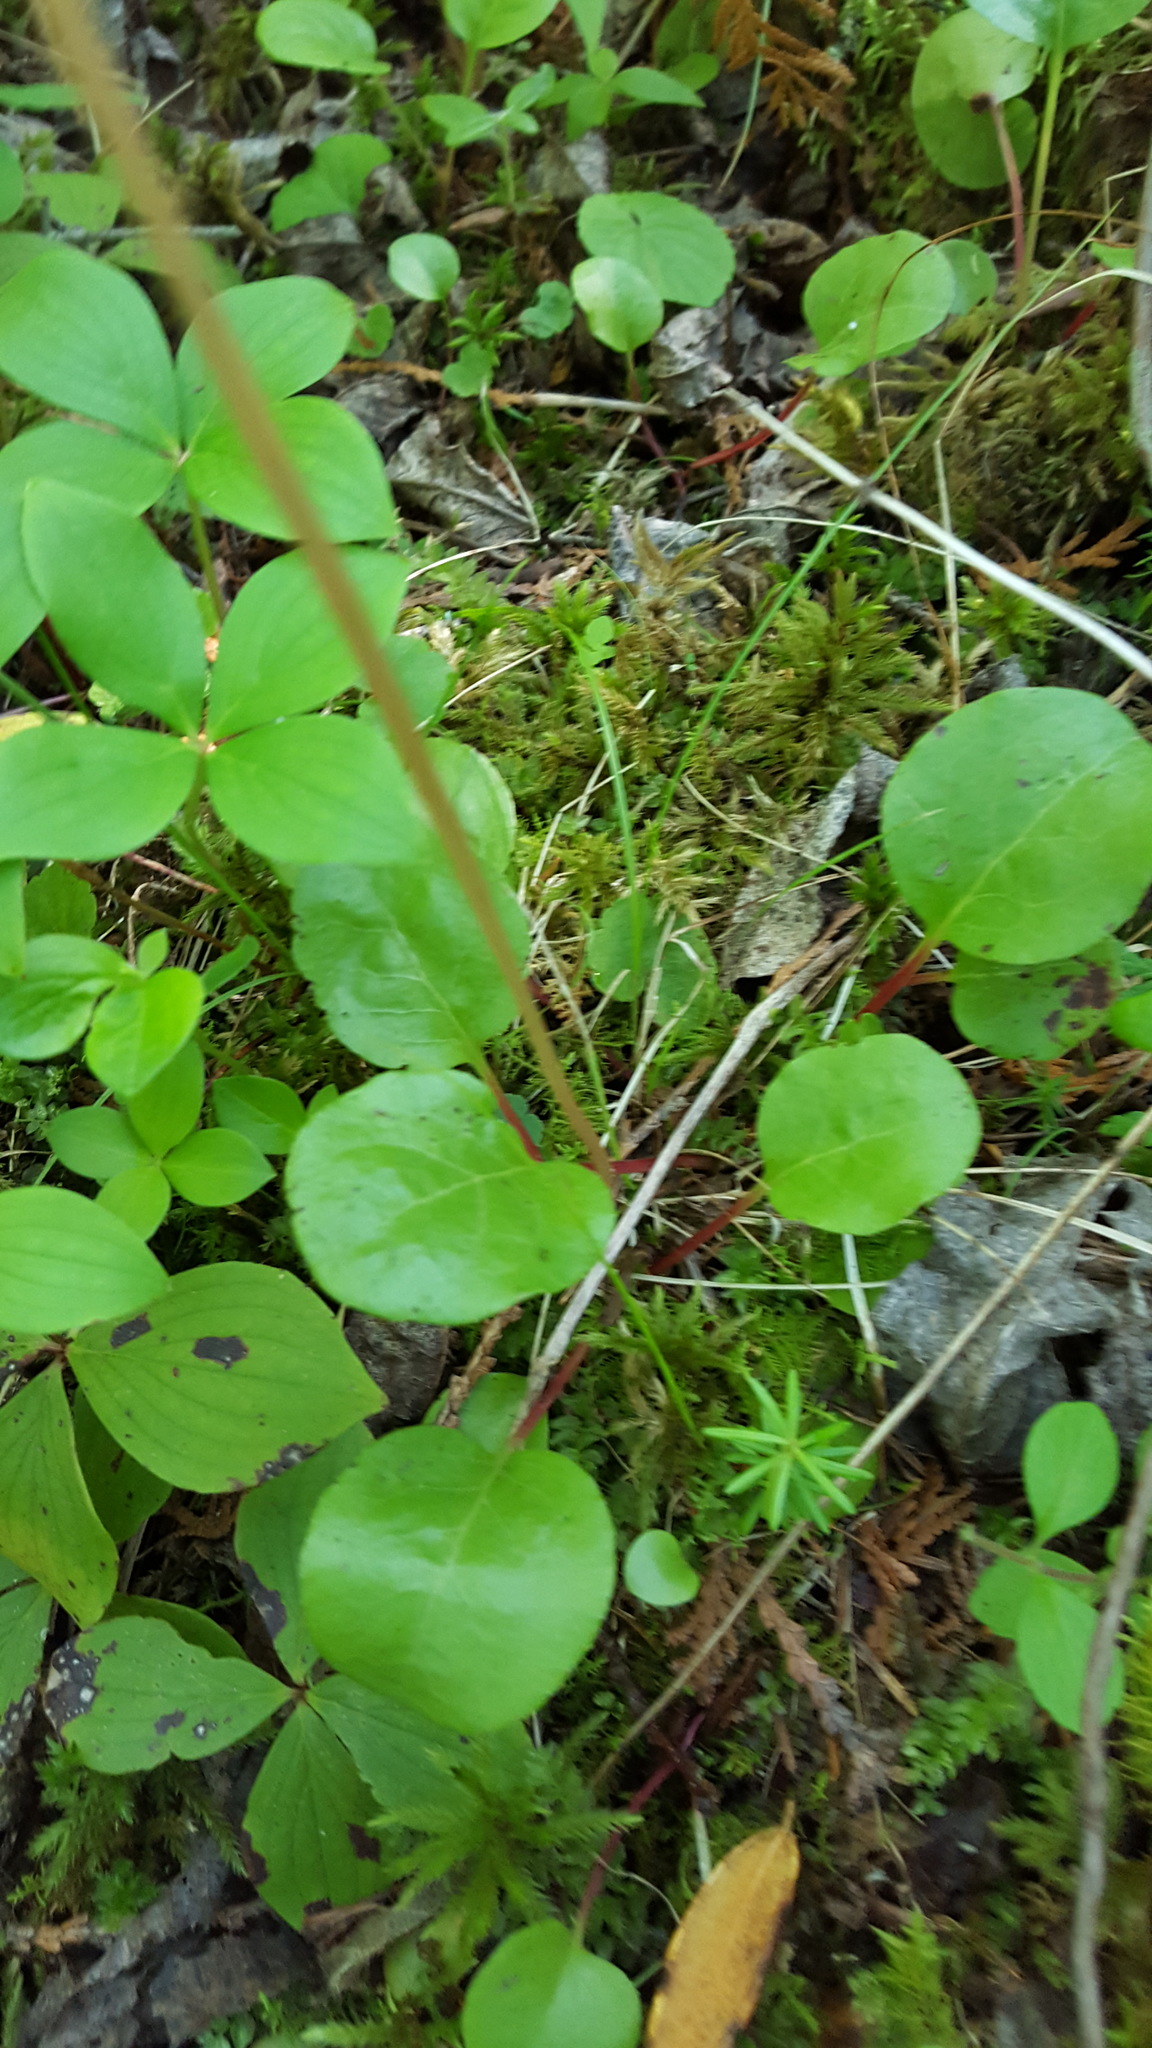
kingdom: Plantae
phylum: Tracheophyta
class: Magnoliopsida
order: Ericales
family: Ericaceae
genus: Pyrola
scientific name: Pyrola asarifolia
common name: Bog wintergreen
